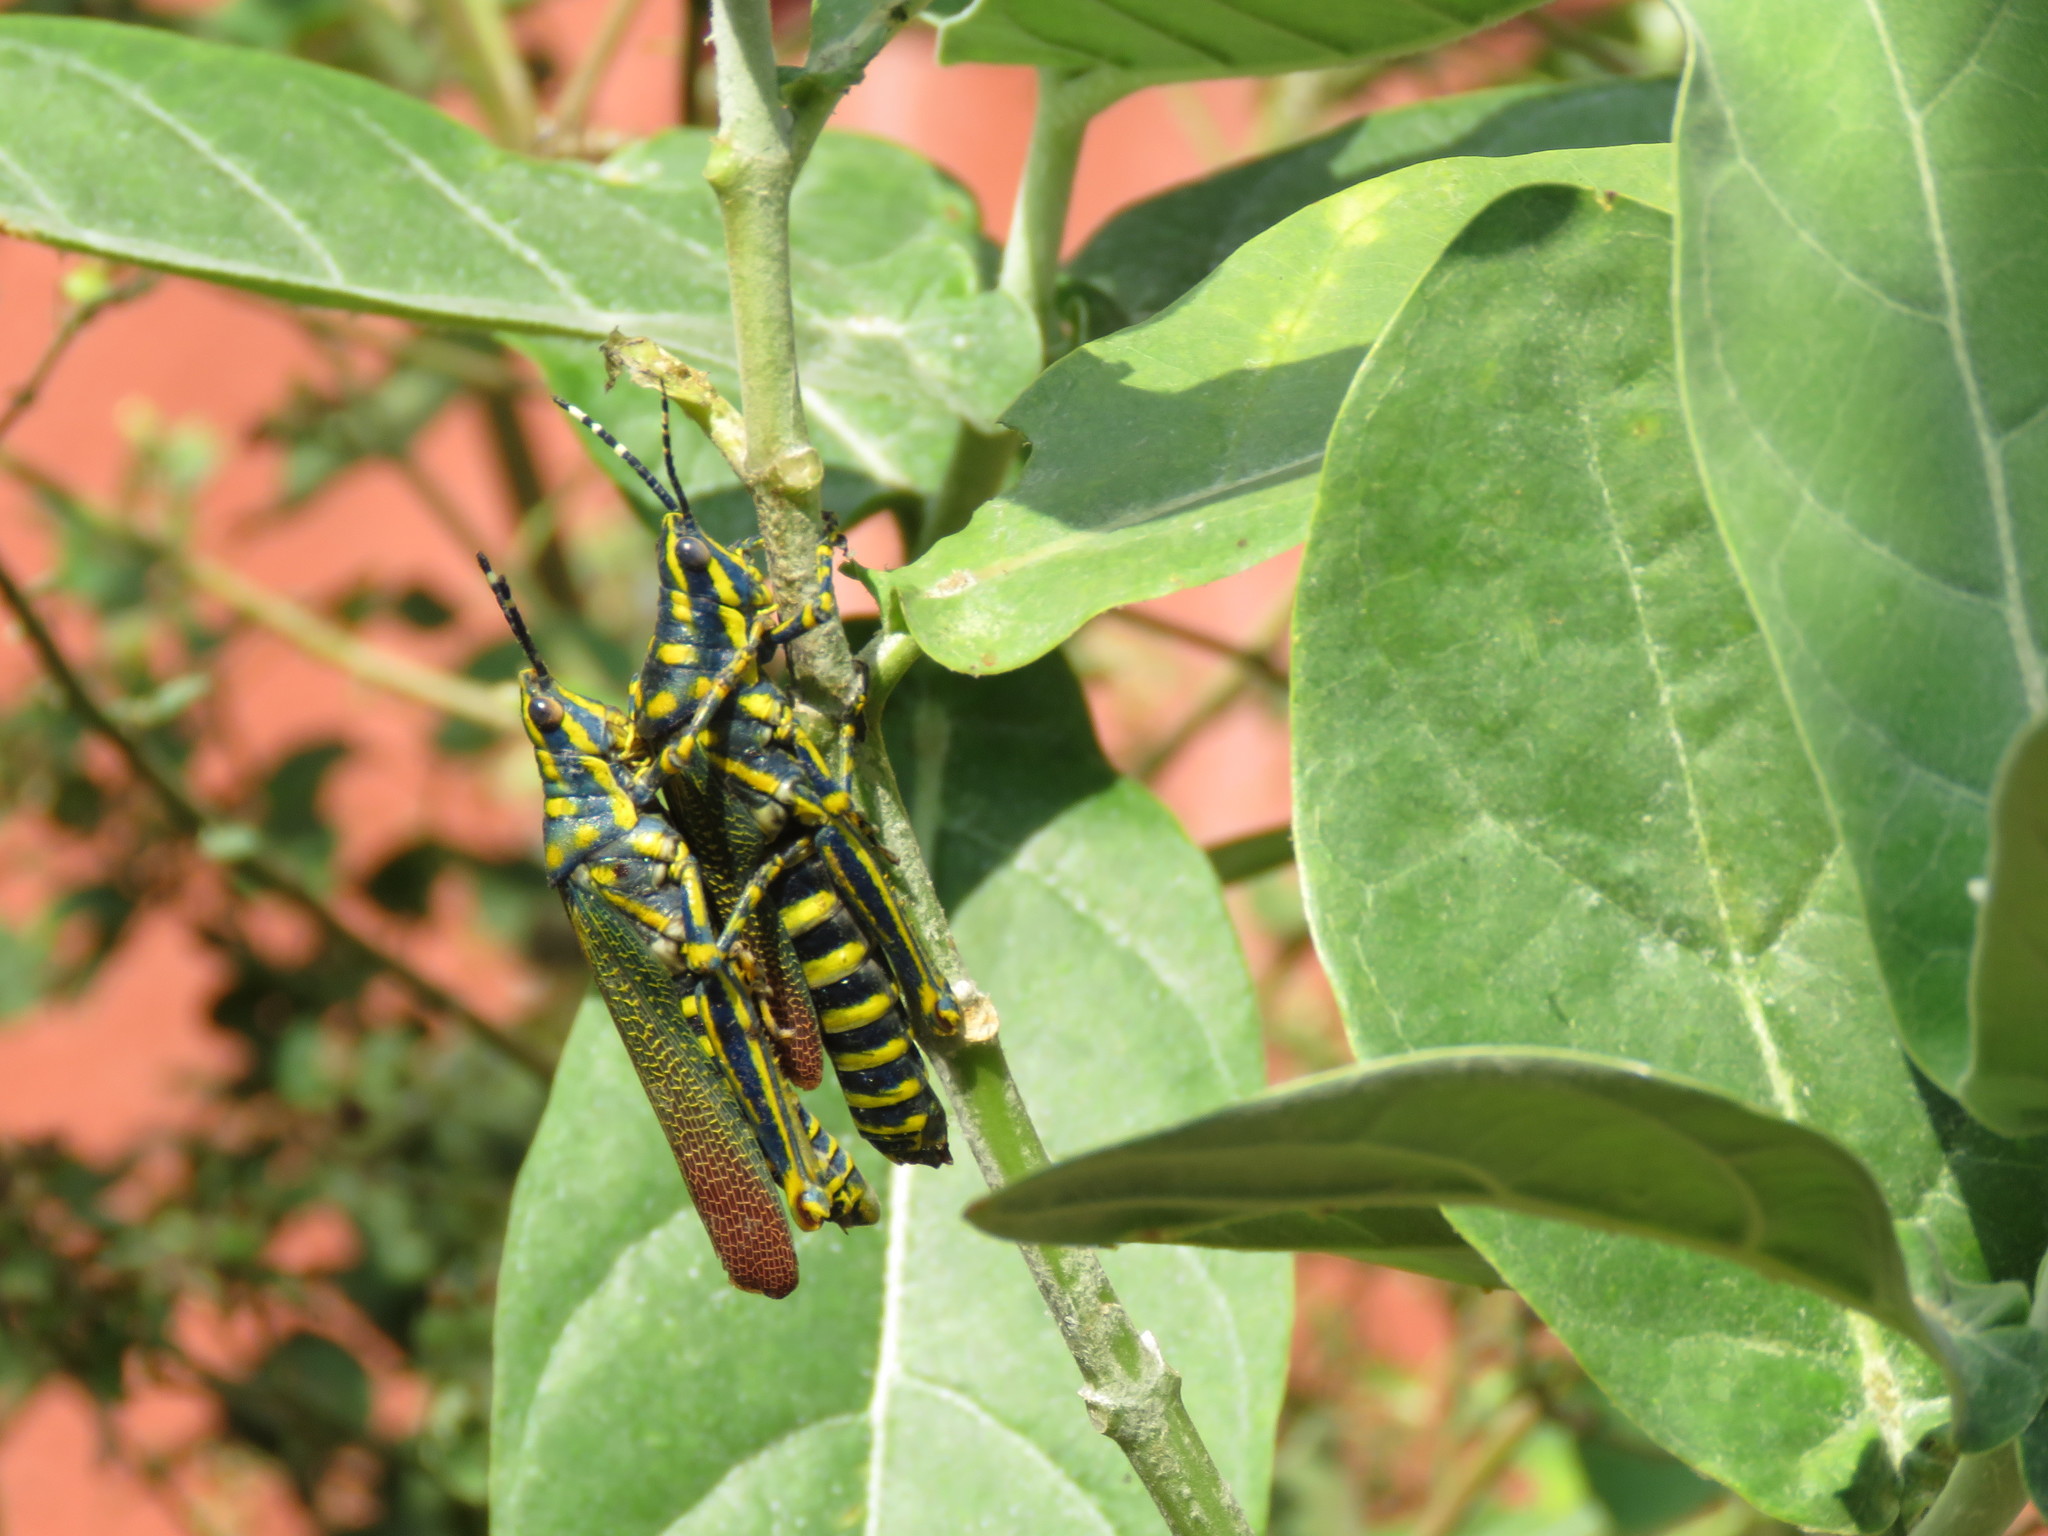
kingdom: Animalia
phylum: Arthropoda
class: Insecta
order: Orthoptera
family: Pyrgomorphidae
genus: Poekilocerus
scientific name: Poekilocerus pictus
